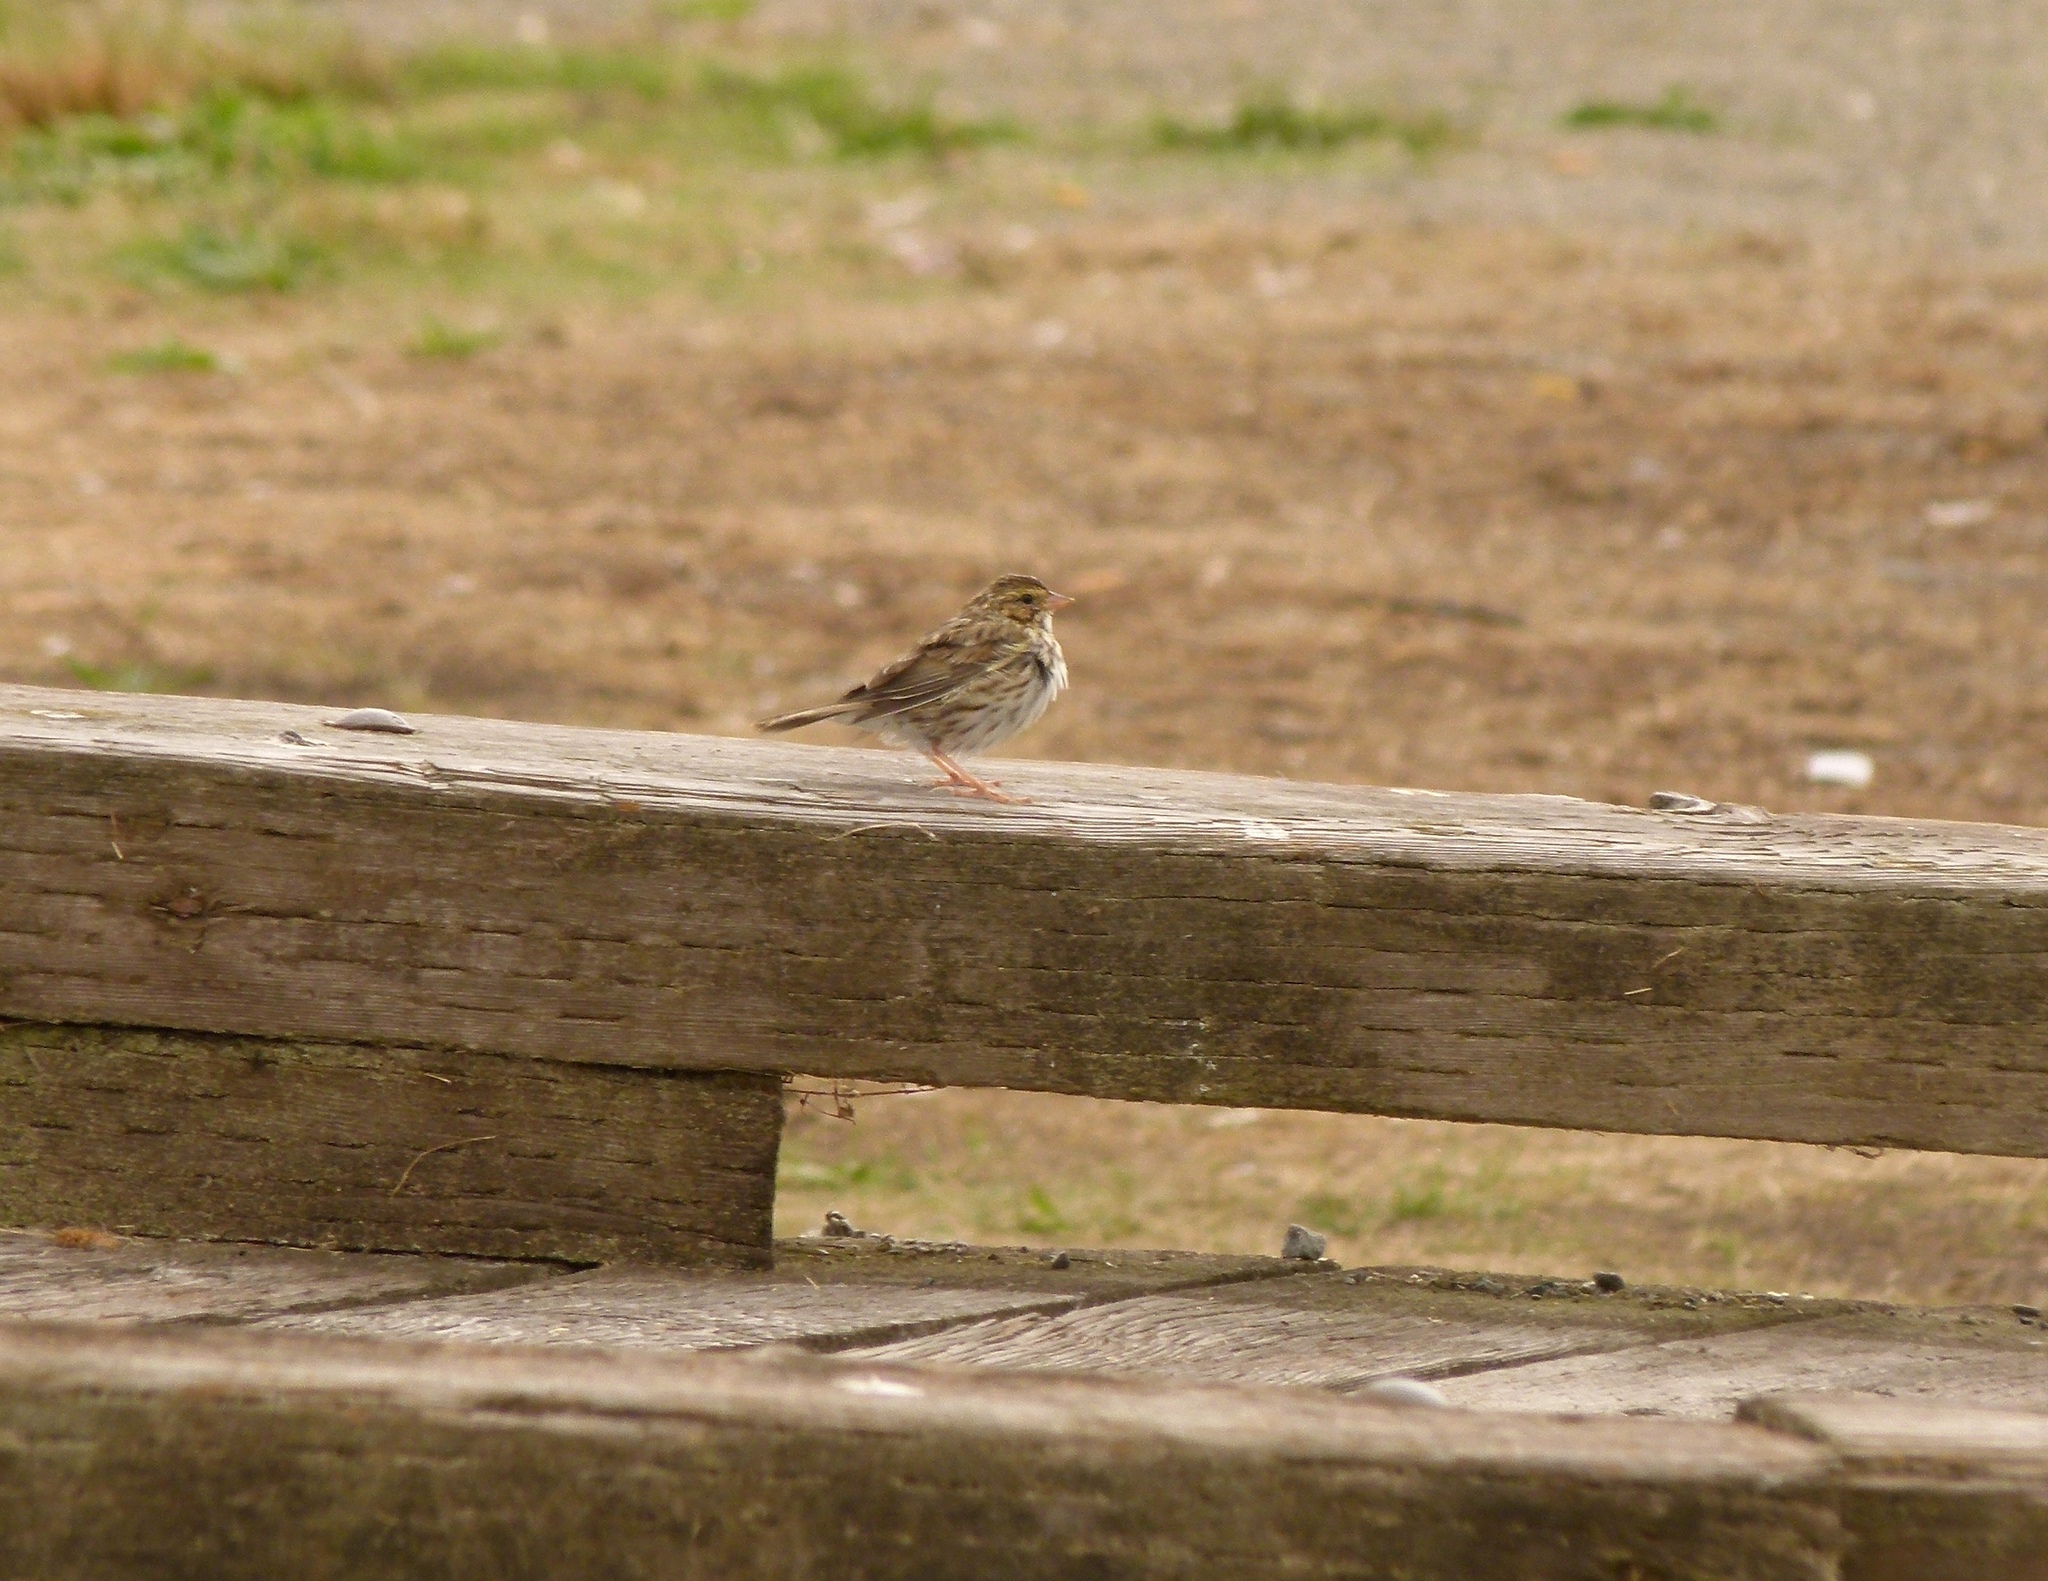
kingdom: Animalia
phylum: Chordata
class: Aves
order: Passeriformes
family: Passerellidae
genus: Passerculus
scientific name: Passerculus sandwichensis
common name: Savannah sparrow
